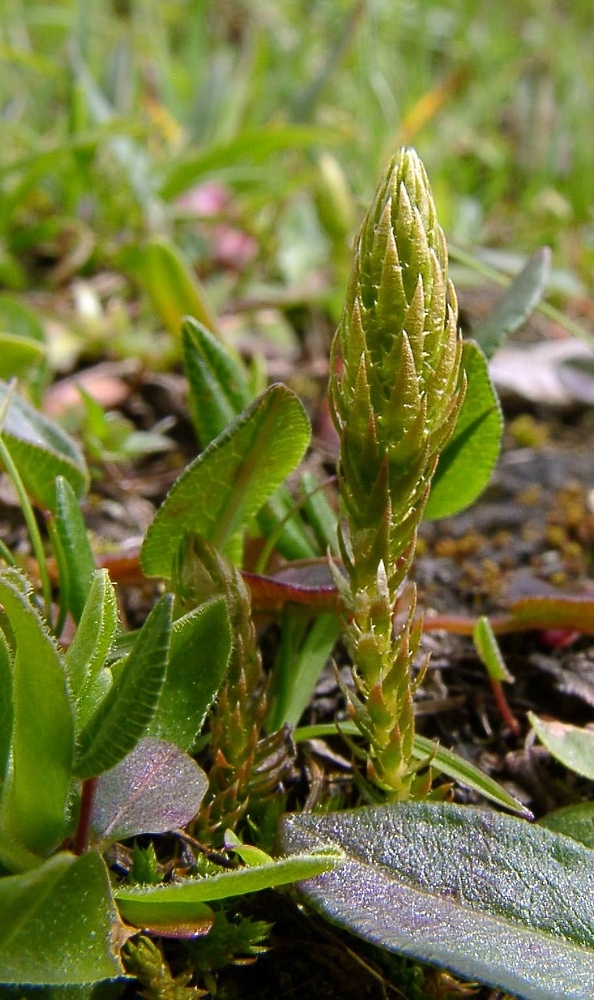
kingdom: Plantae
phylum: Tracheophyta
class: Lycopodiopsida
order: Selaginellales
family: Selaginellaceae
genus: Selaginella
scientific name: Selaginella selaginoides
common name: Prickly mountain-moss
